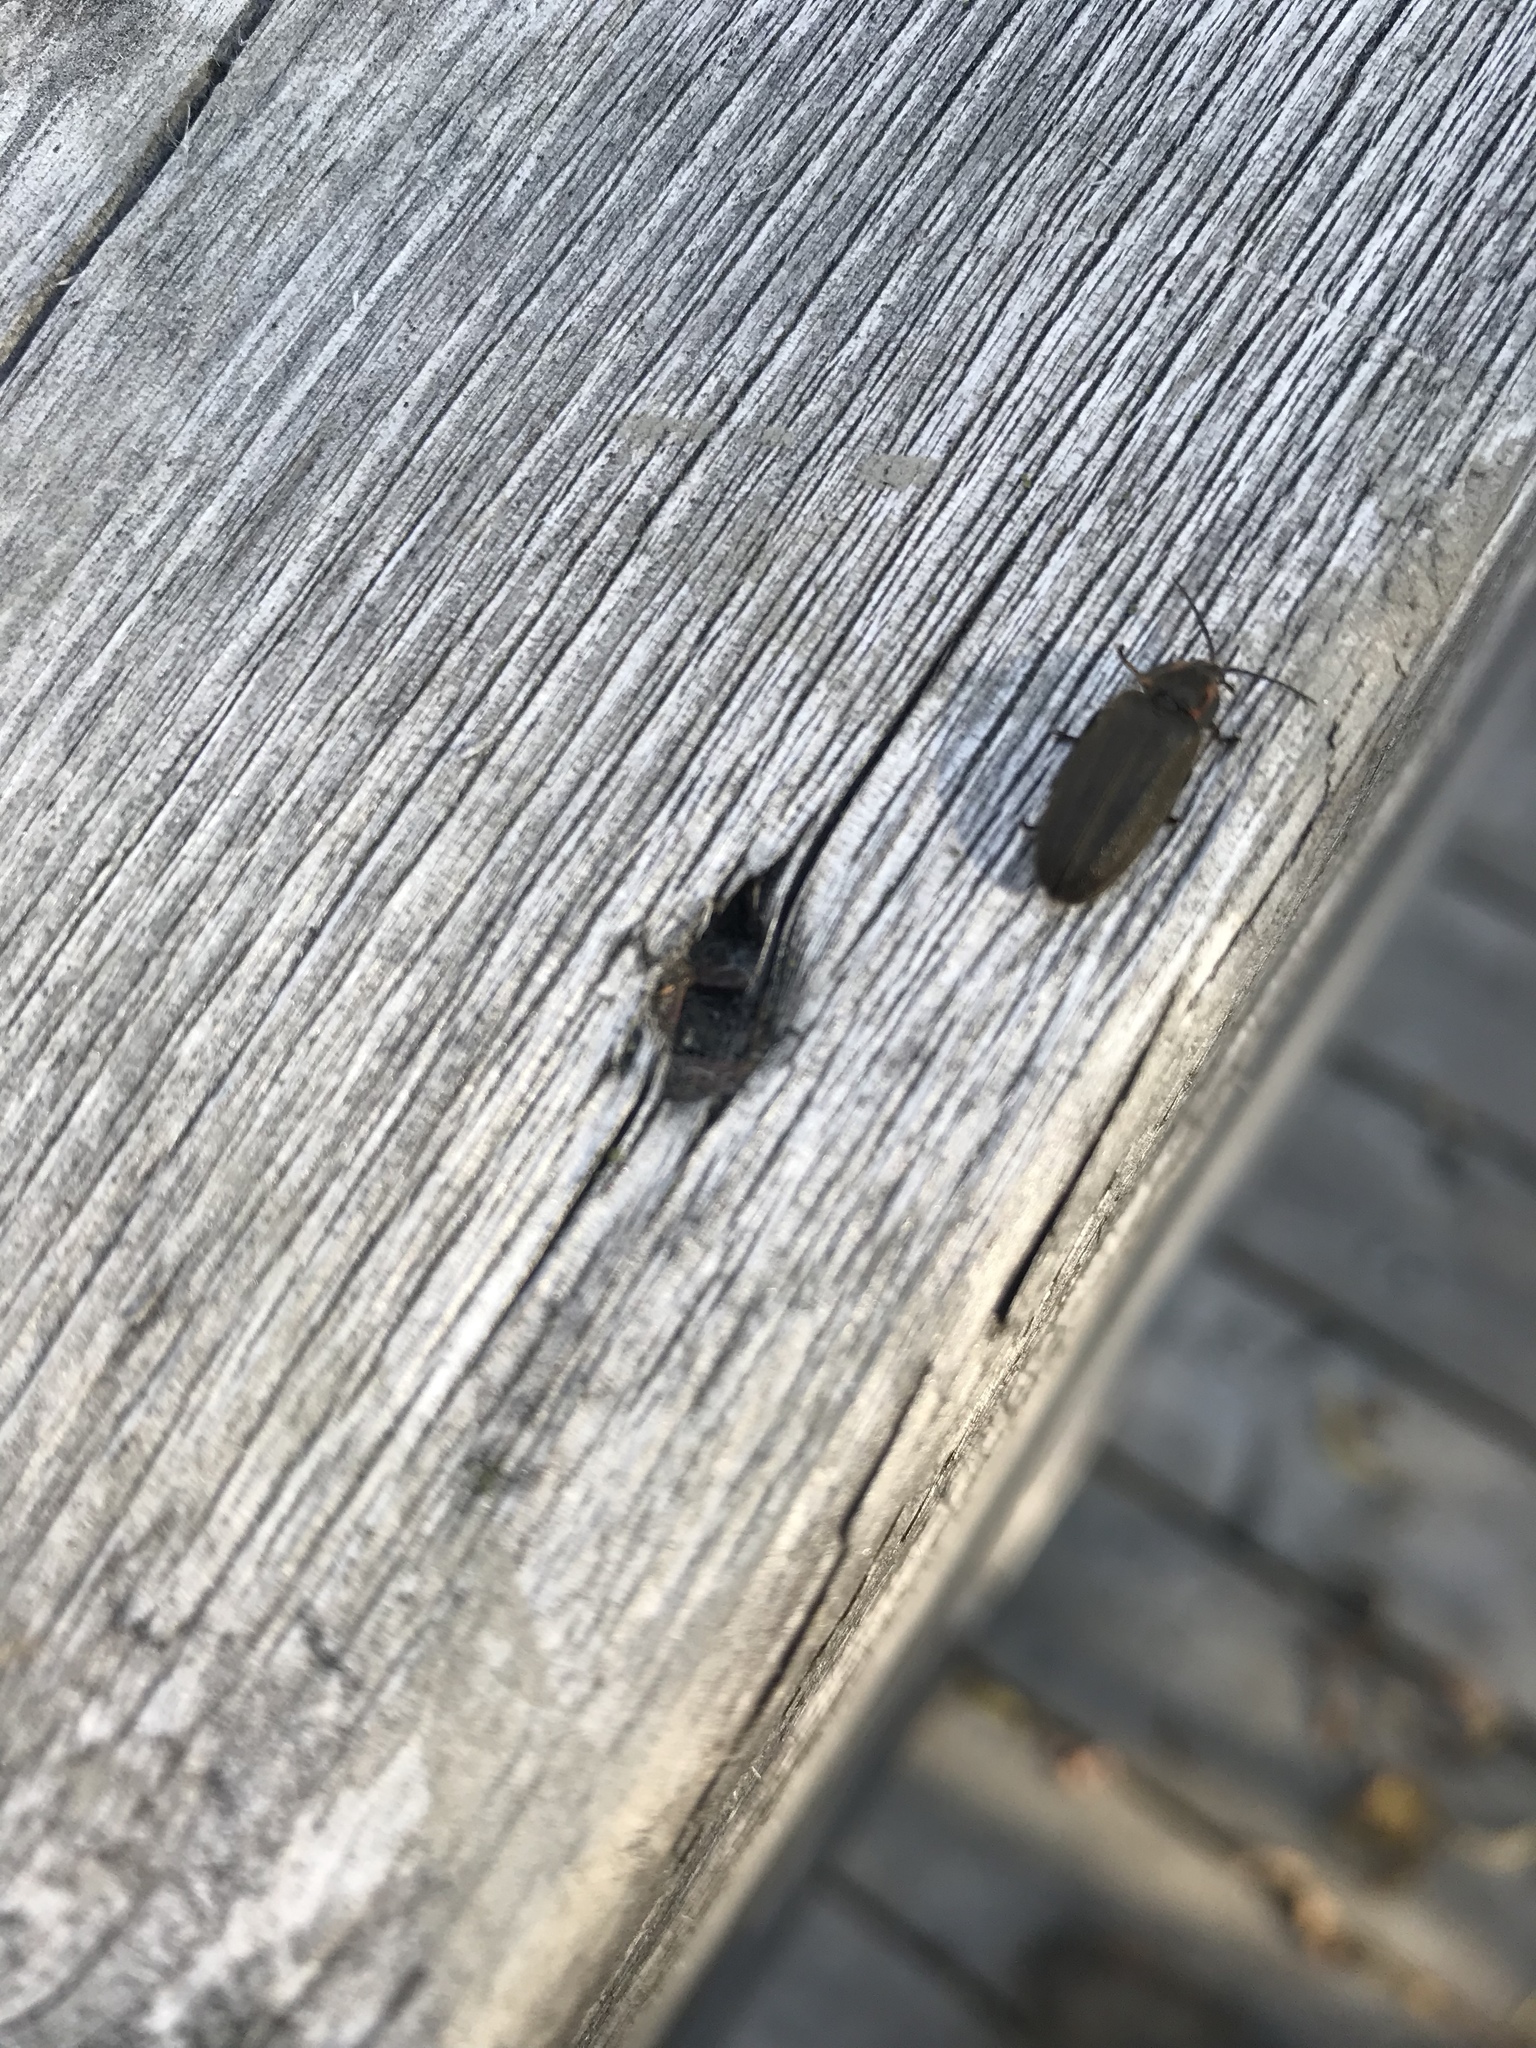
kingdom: Animalia
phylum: Arthropoda
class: Insecta
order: Coleoptera
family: Lampyridae
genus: Photinus
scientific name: Photinus corrusca
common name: Winter firefly
